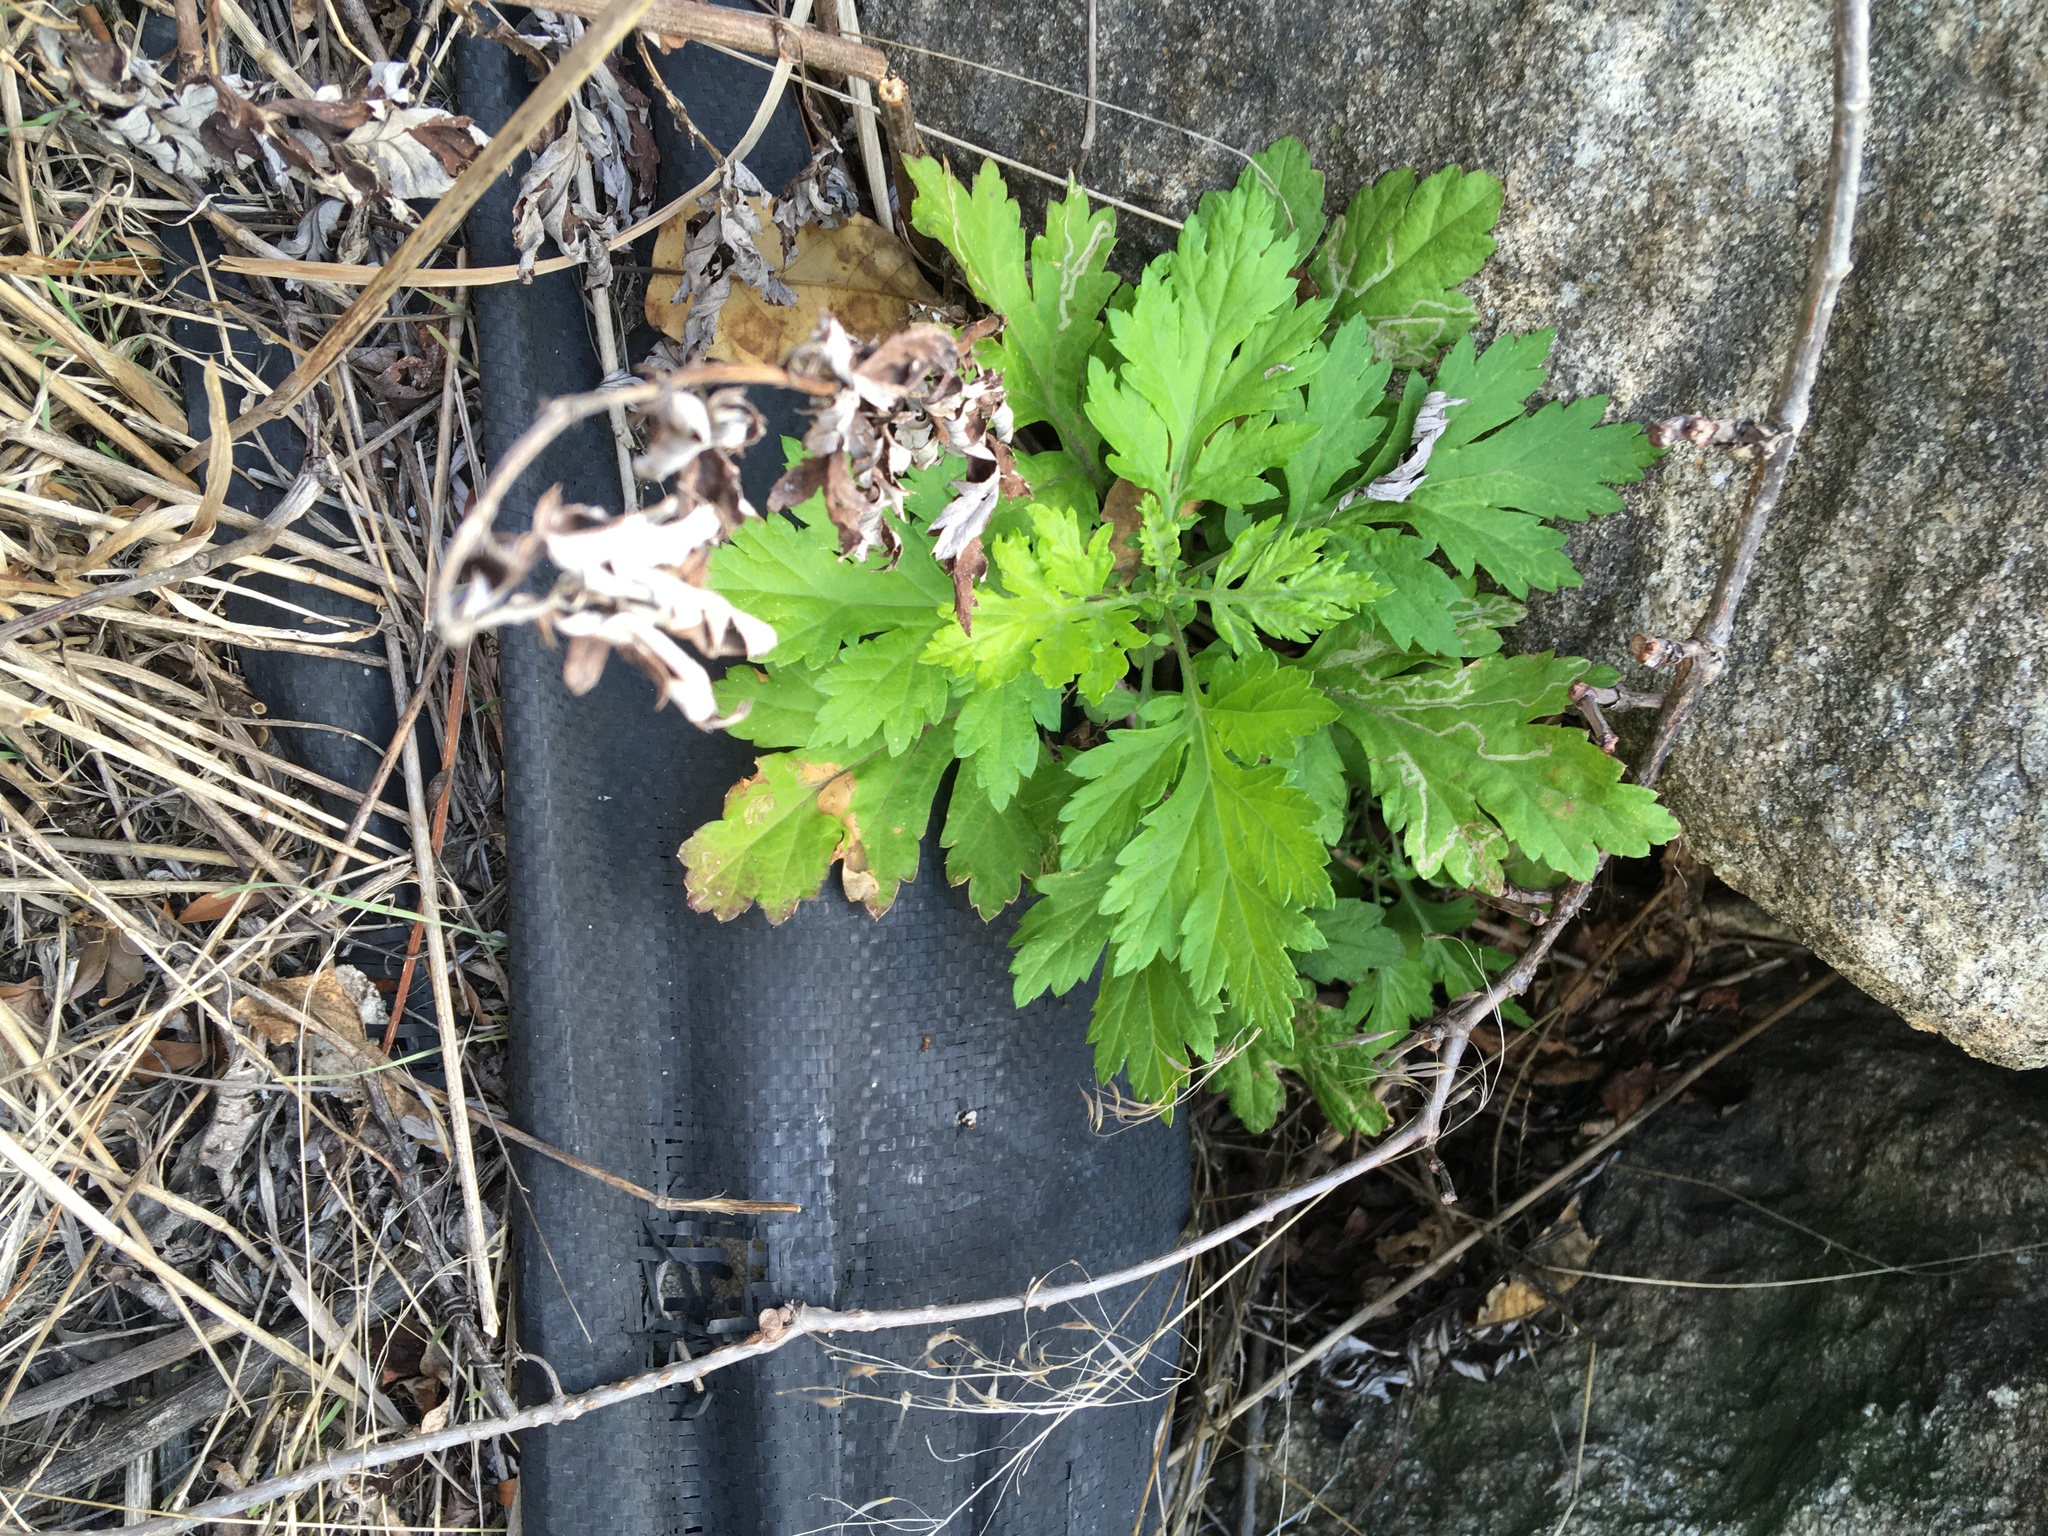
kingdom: Plantae
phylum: Tracheophyta
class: Magnoliopsida
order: Asterales
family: Asteraceae
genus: Artemisia
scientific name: Artemisia vulgaris
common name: Mugwort
